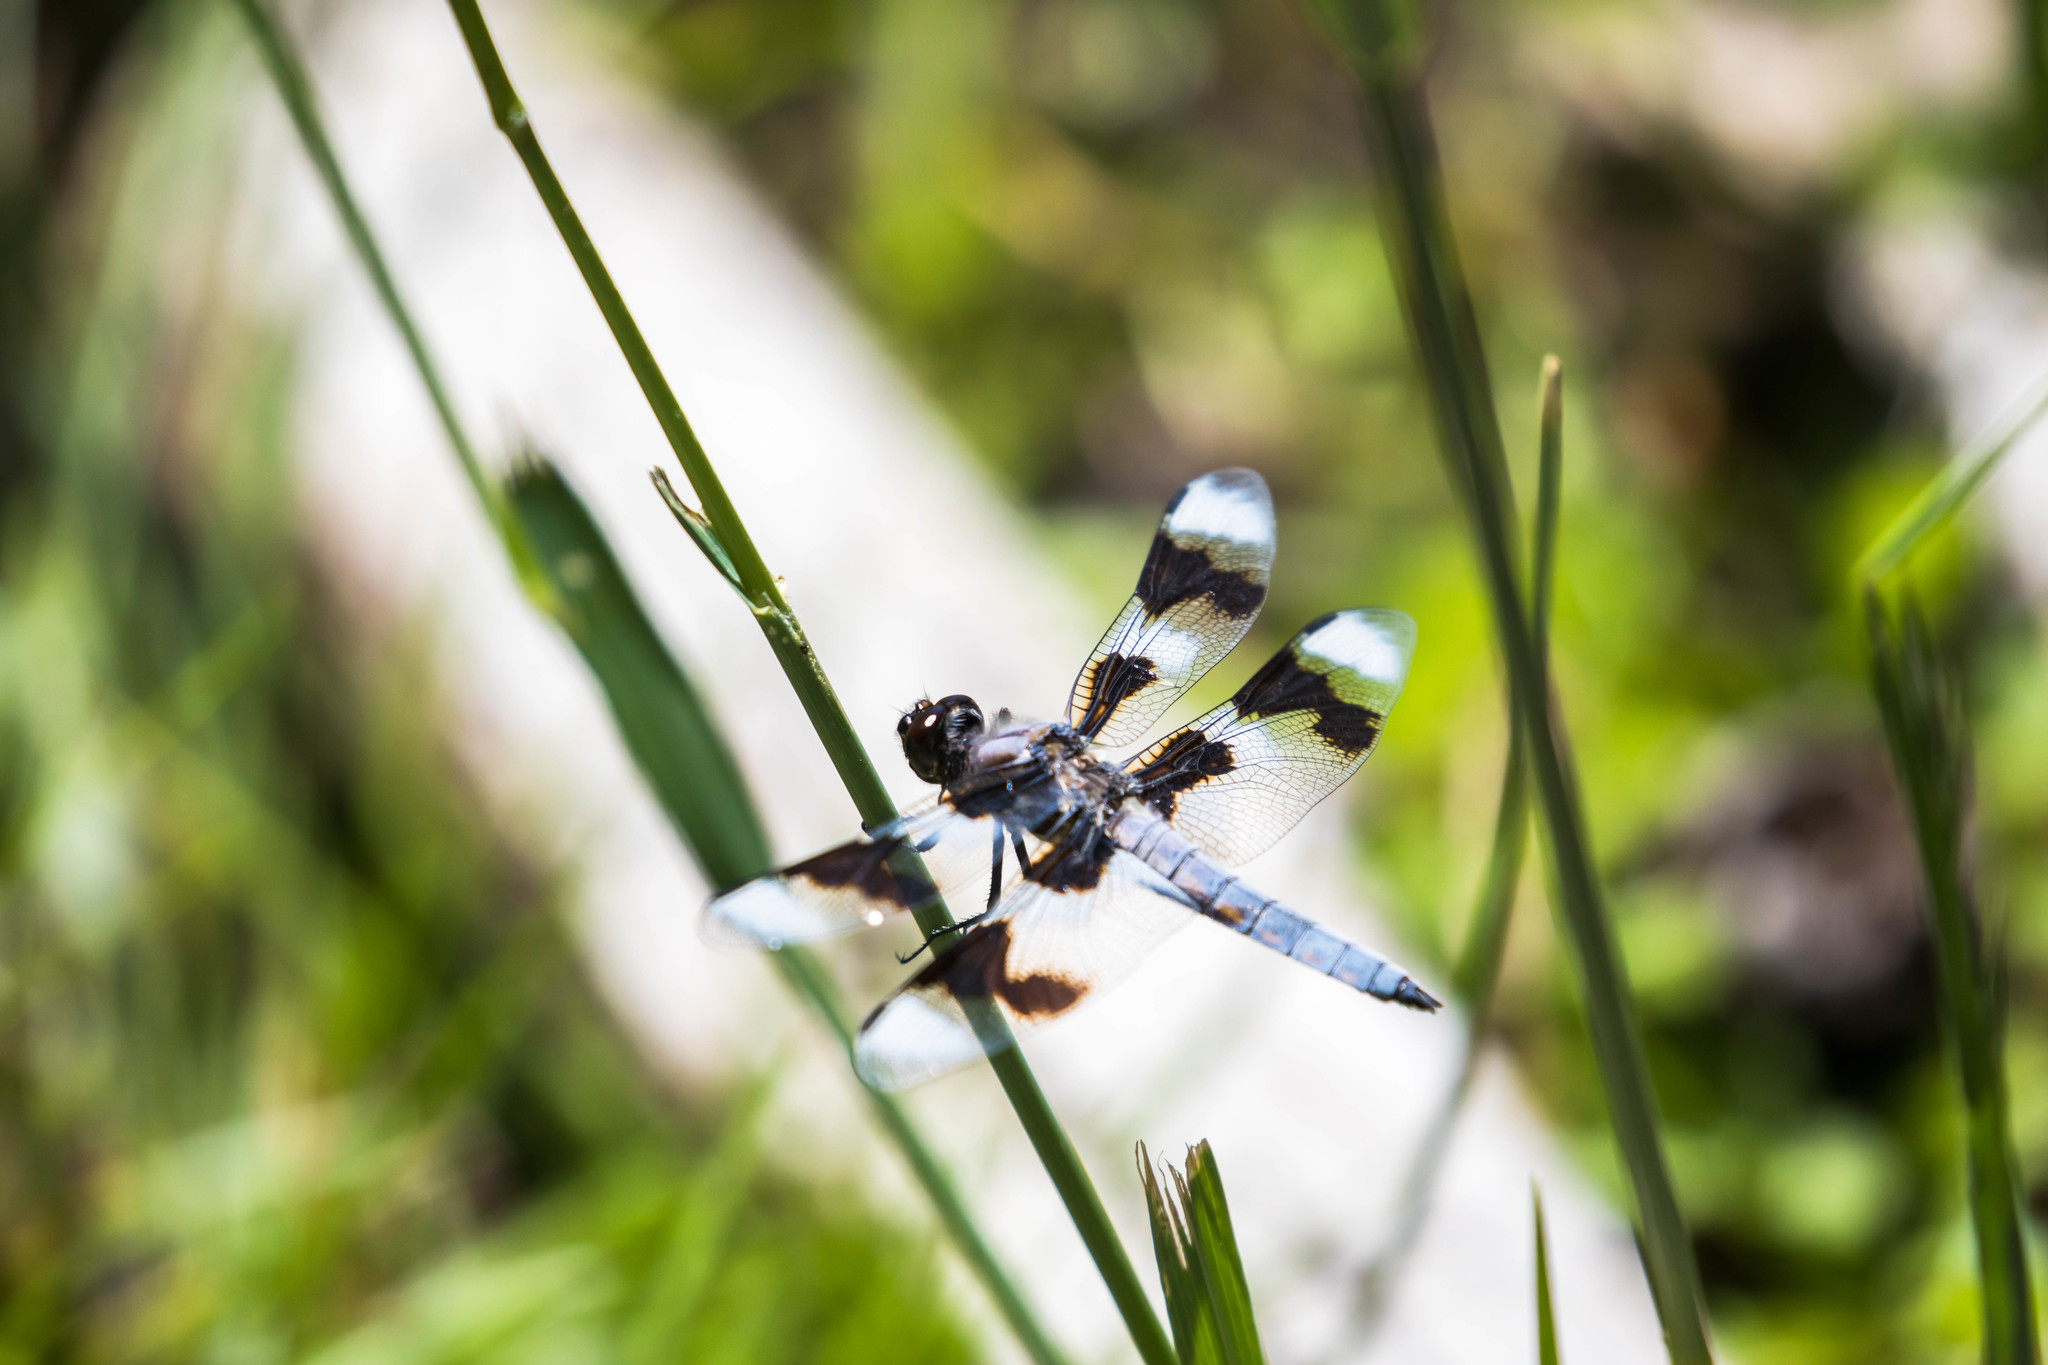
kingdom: Animalia
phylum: Arthropoda
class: Insecta
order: Odonata
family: Libellulidae
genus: Libellula
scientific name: Libellula forensis
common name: Eight-spotted skimmer
